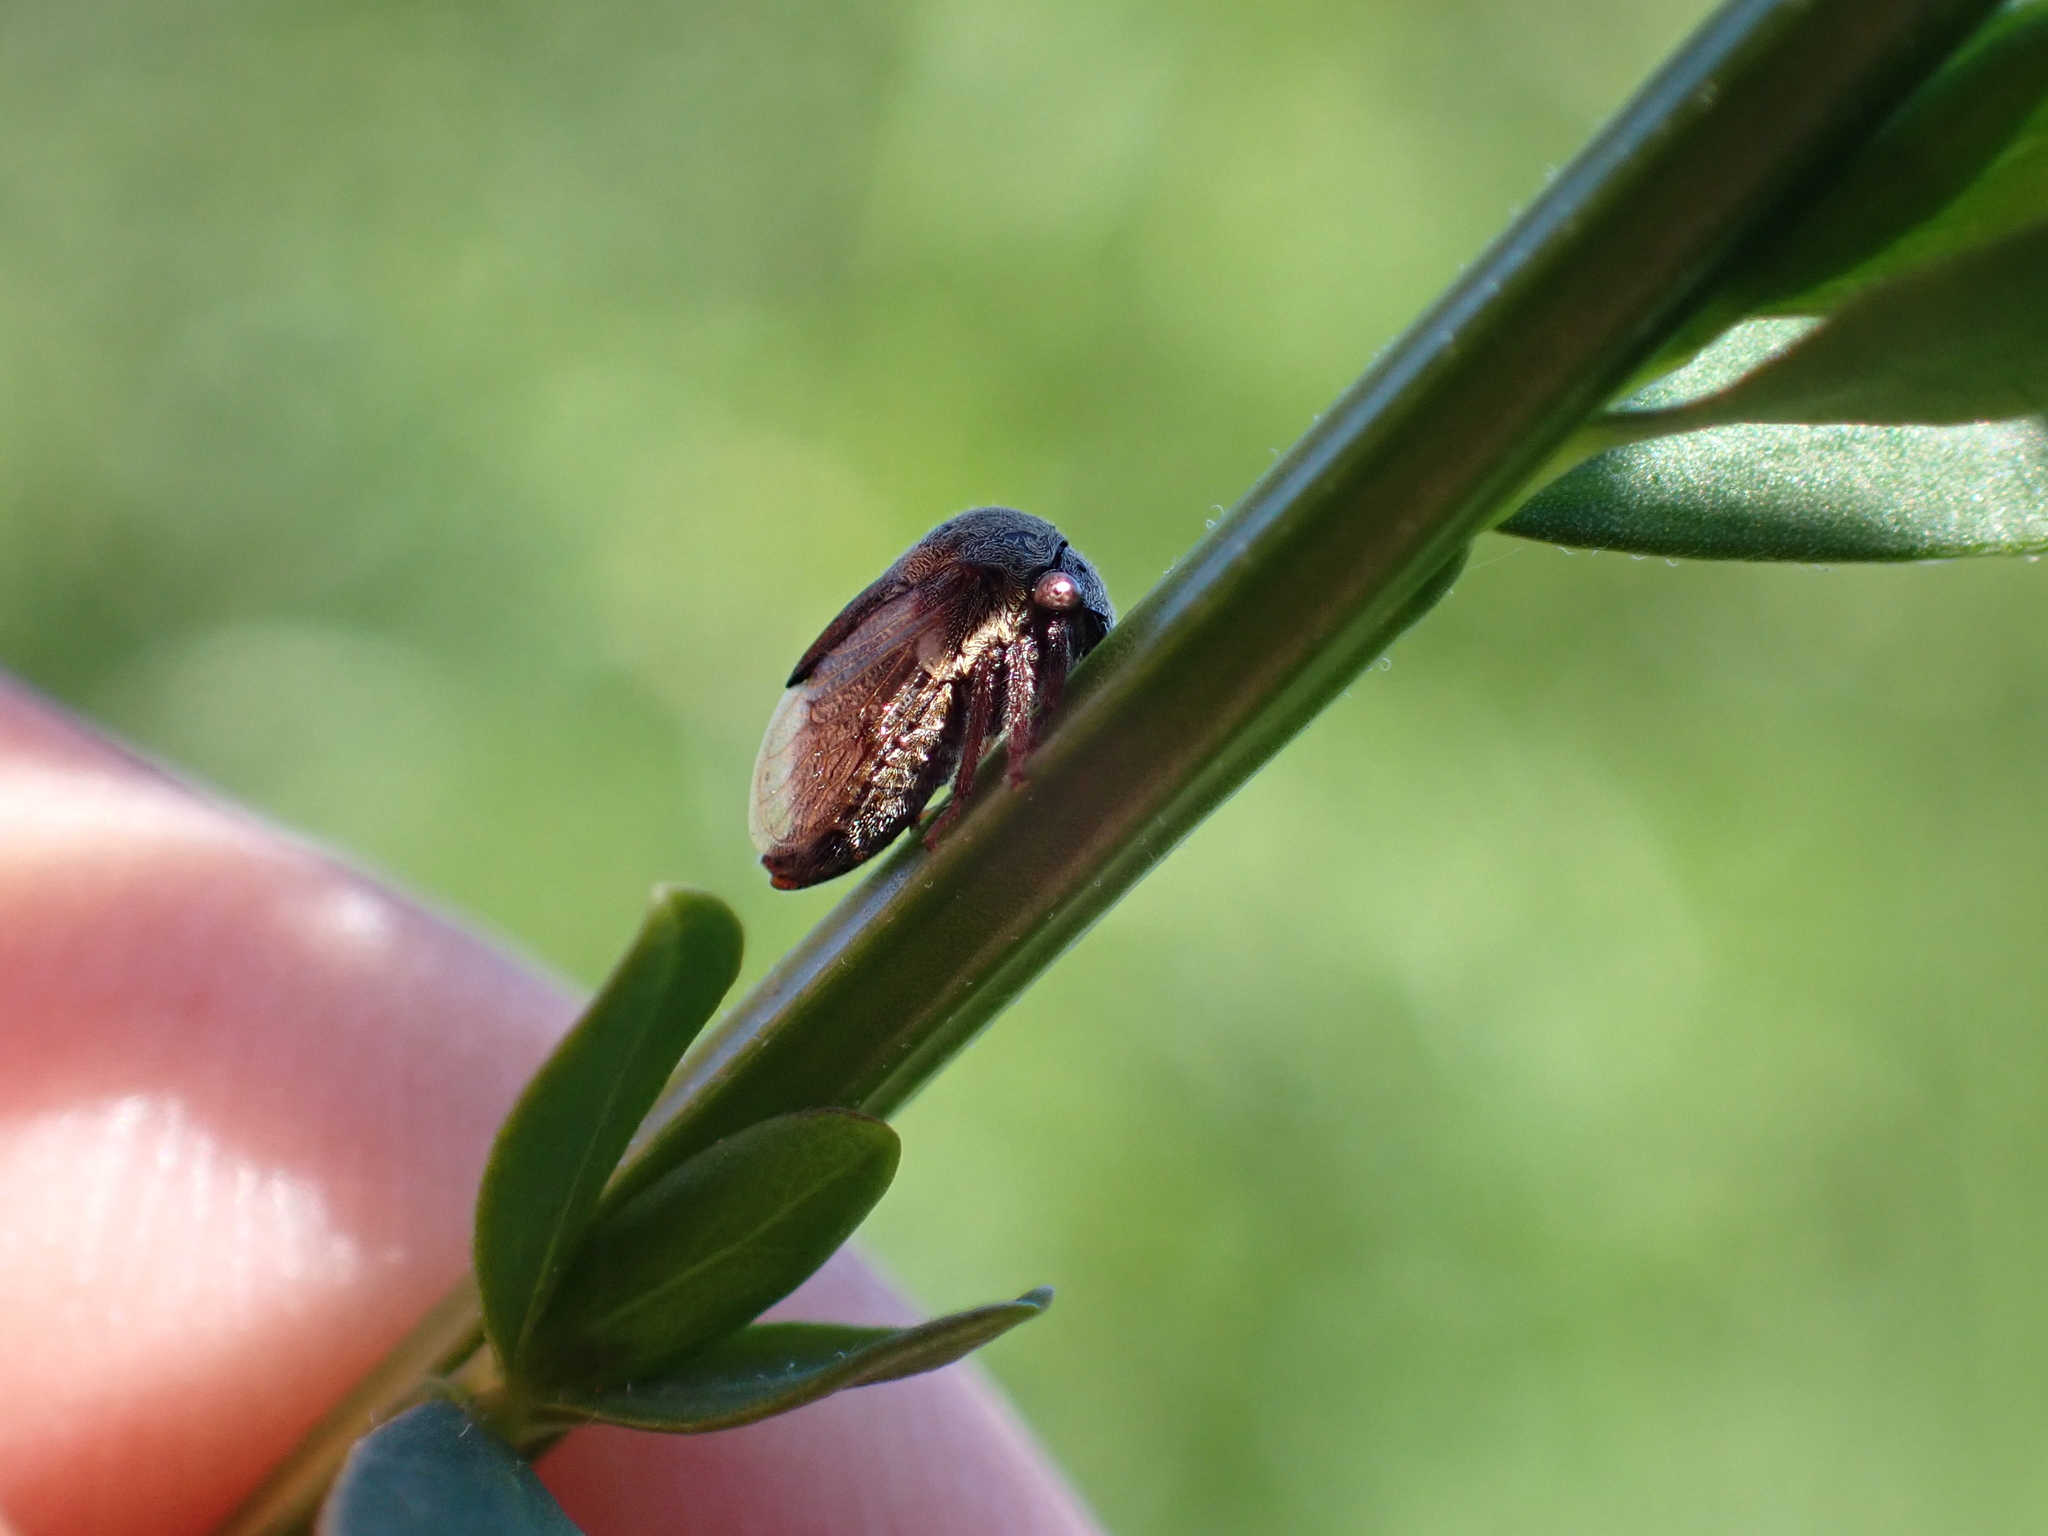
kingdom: Animalia
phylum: Arthropoda
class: Insecta
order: Hemiptera
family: Membracidae
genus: Gargara
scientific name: Gargara genistae
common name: Treehopper
